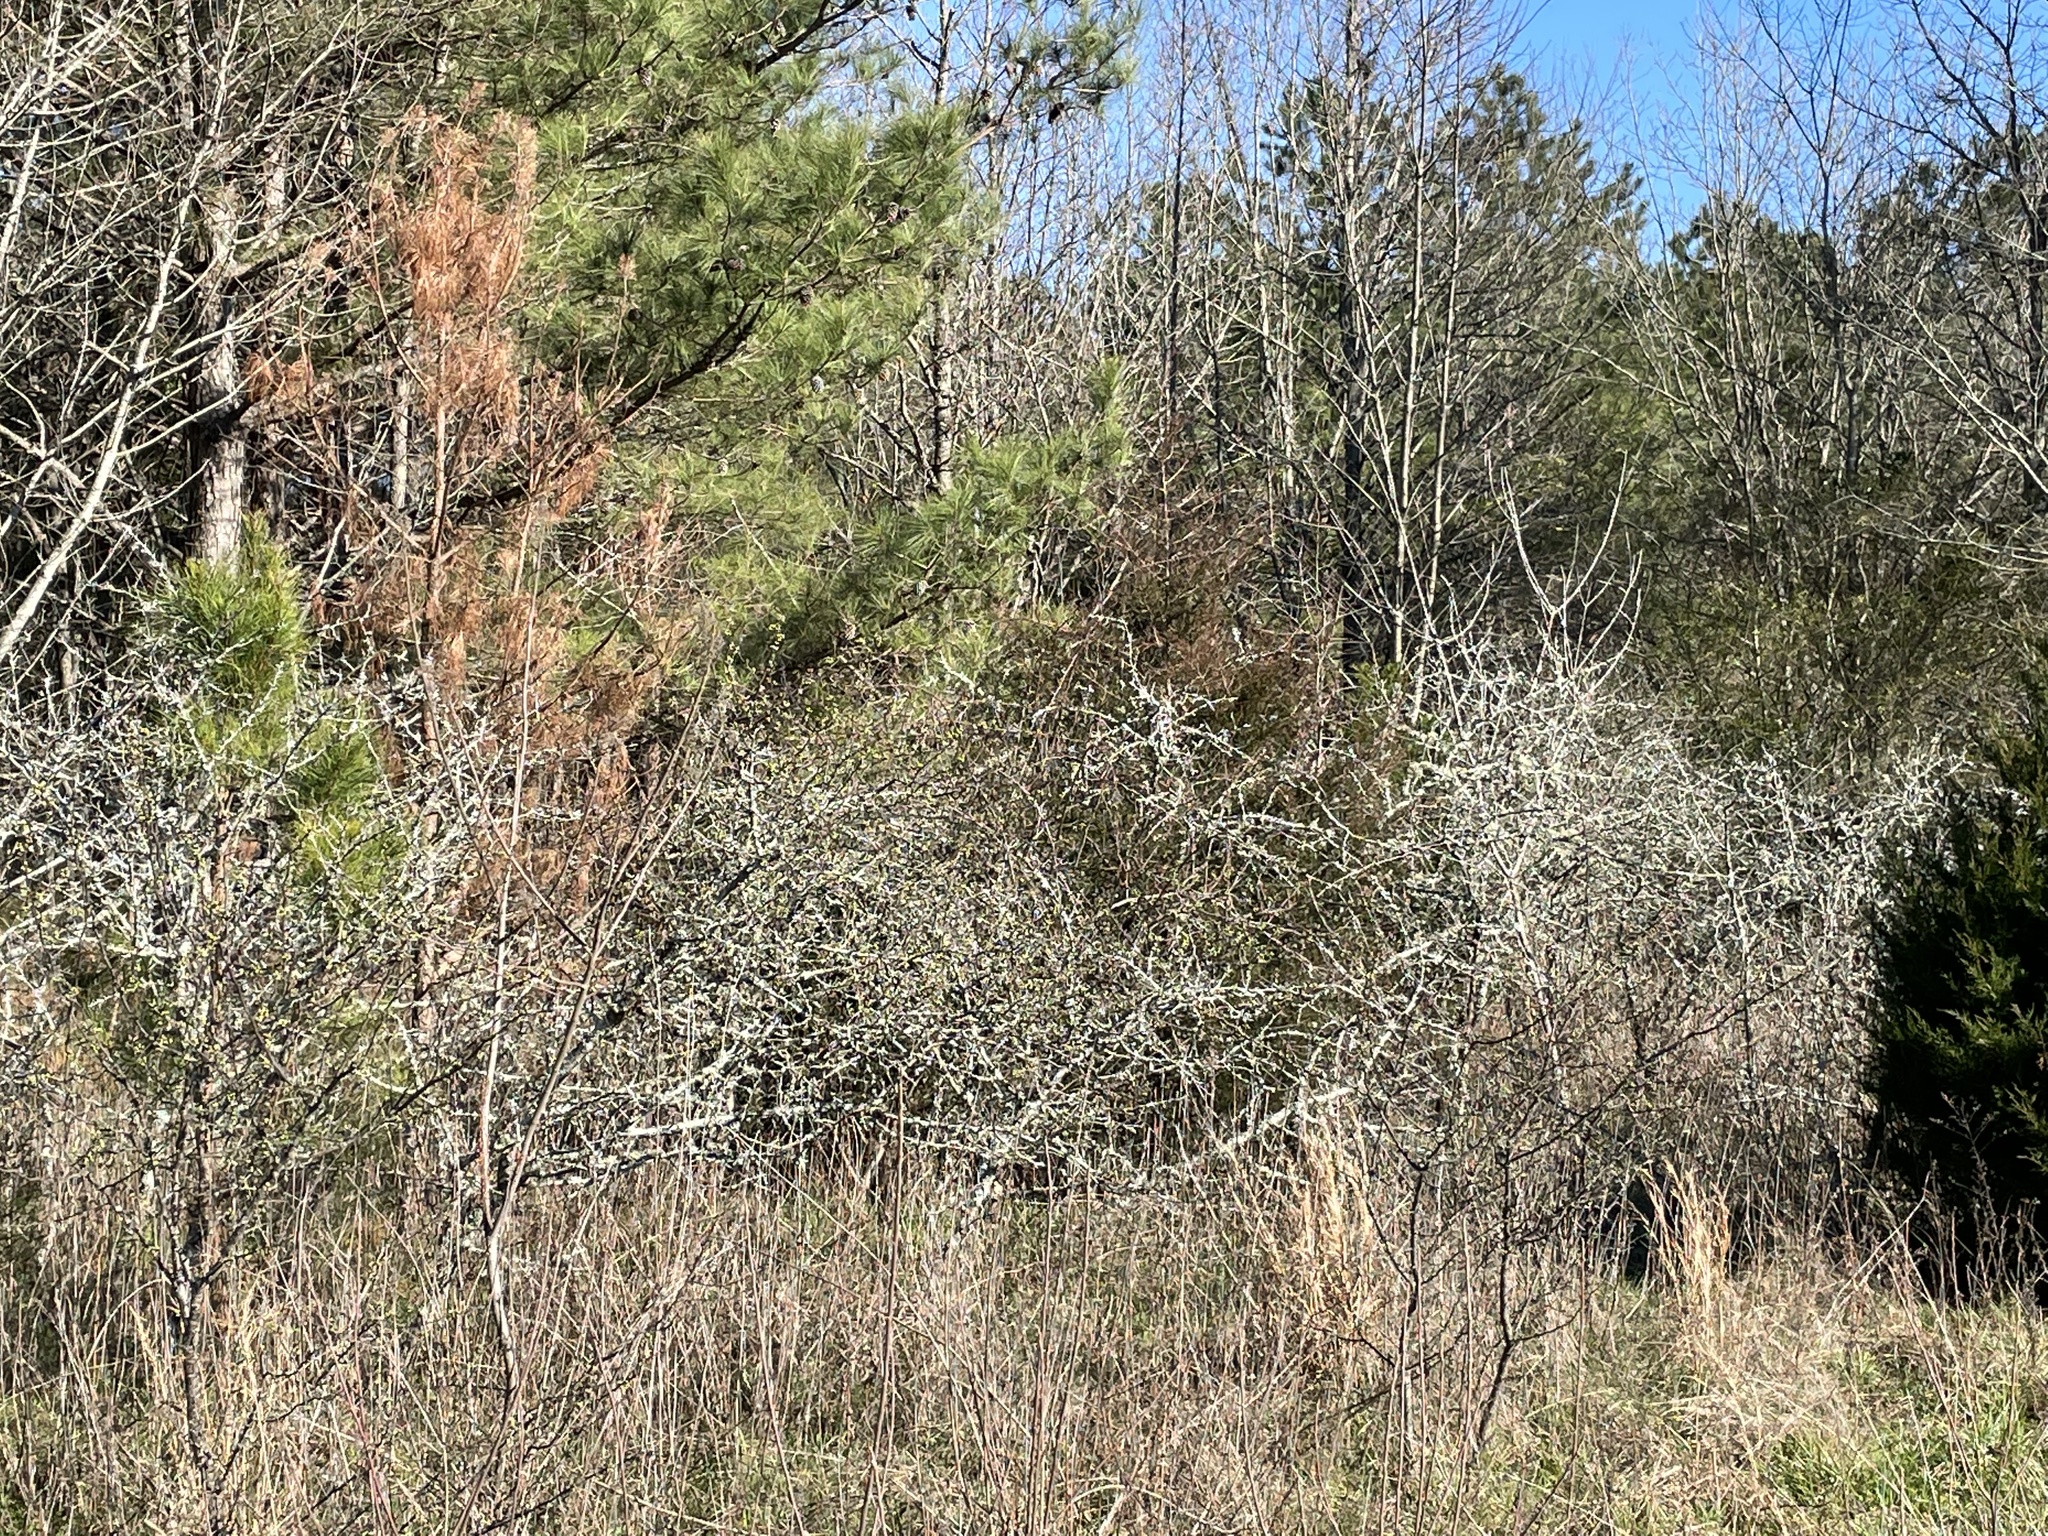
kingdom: Plantae
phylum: Tracheophyta
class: Magnoliopsida
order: Rosales
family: Rosaceae
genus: Prunus
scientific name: Prunus angustifolia
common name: Cherokee plum
